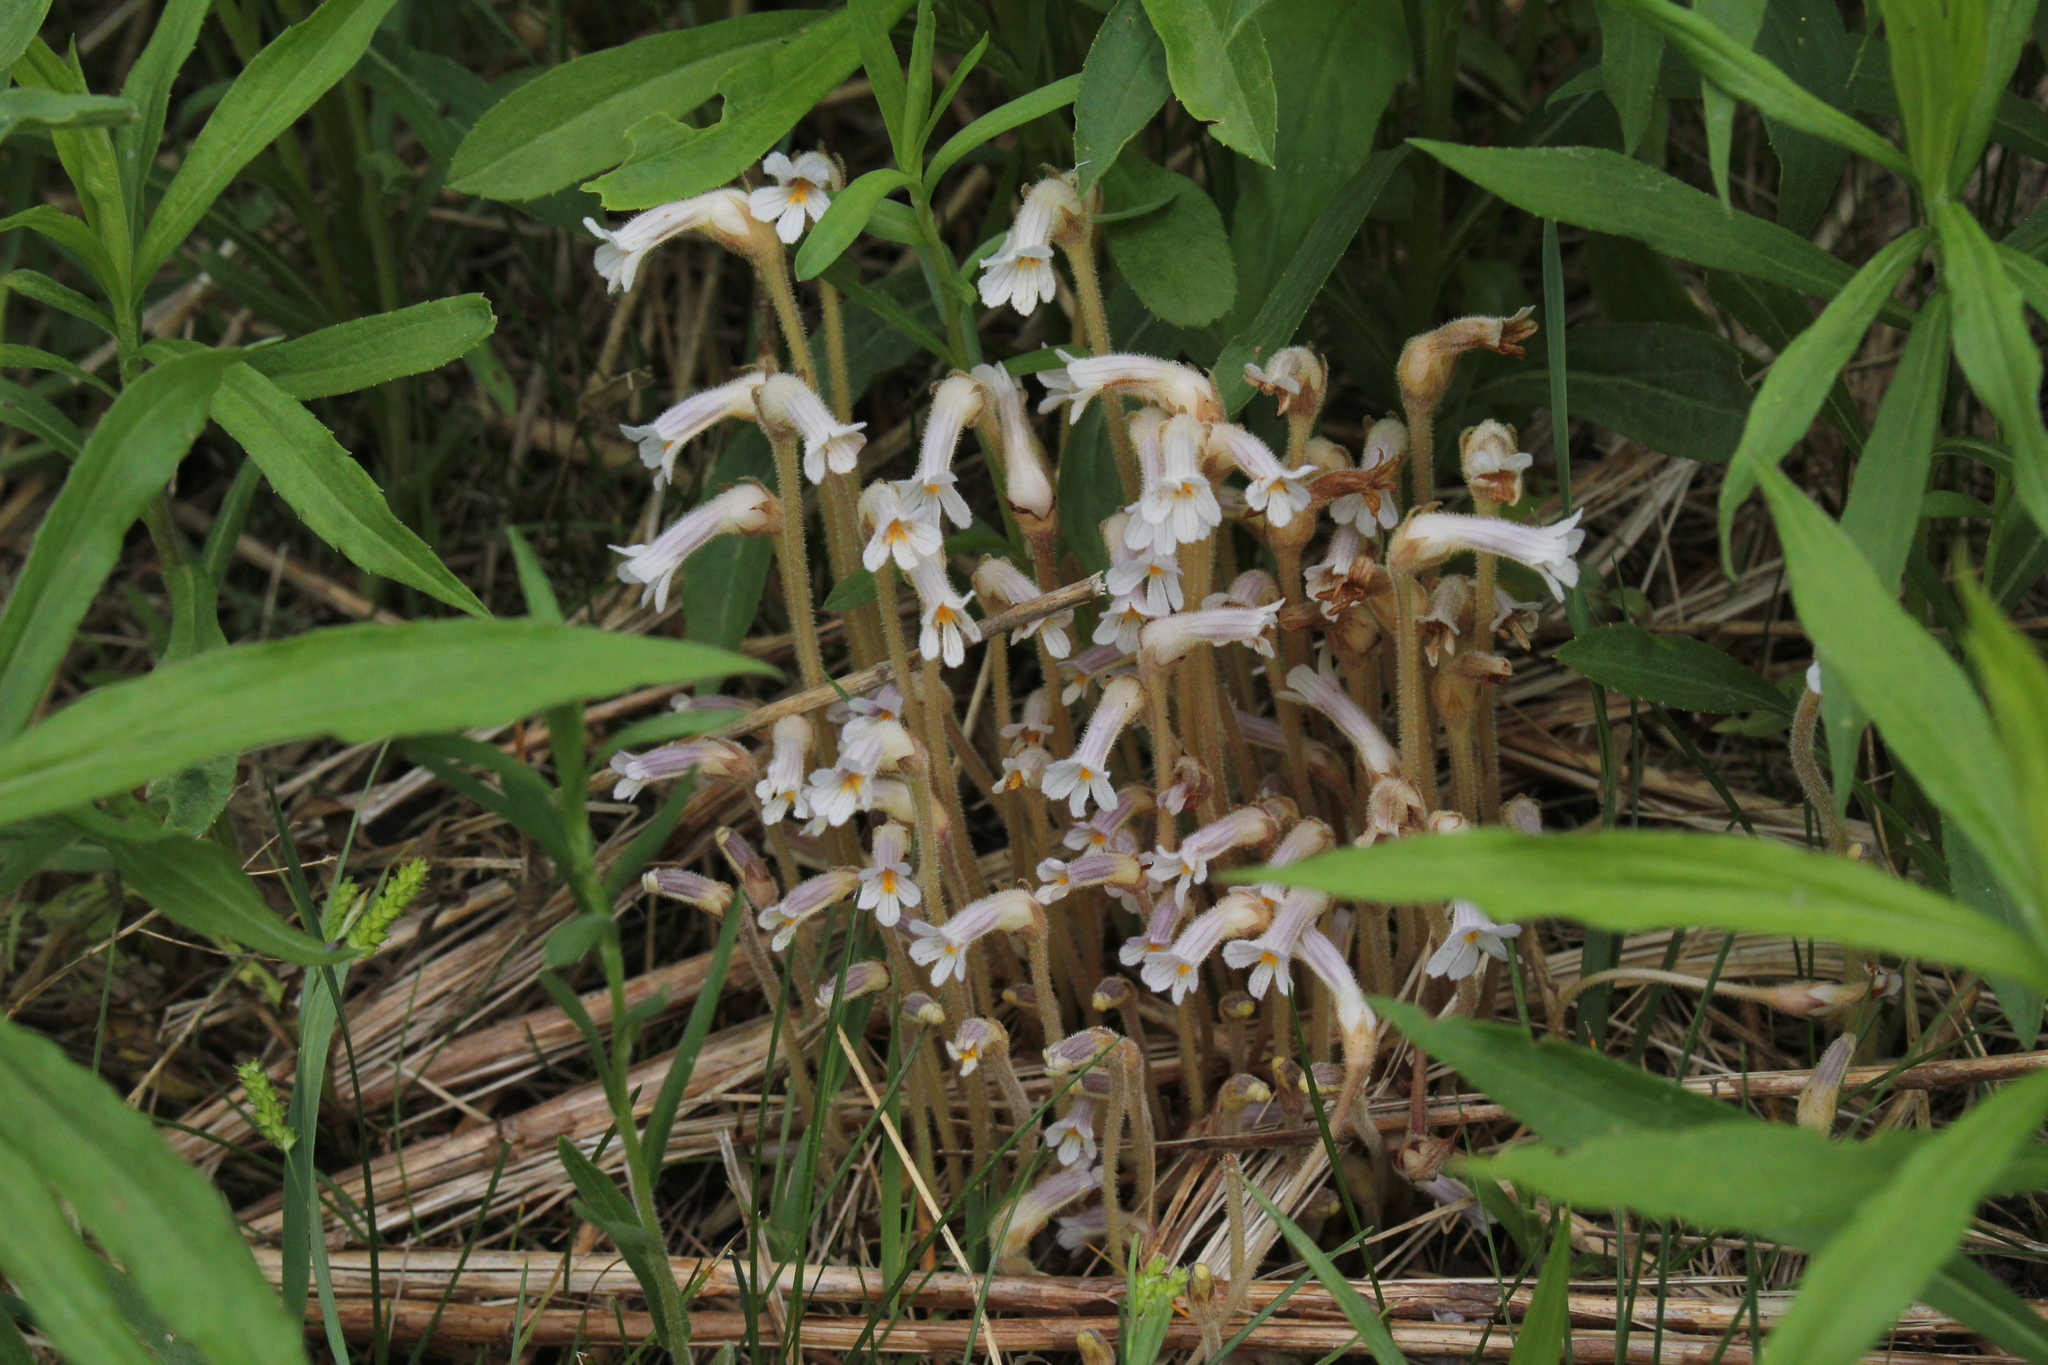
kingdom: Plantae
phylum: Tracheophyta
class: Magnoliopsida
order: Lamiales
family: Orobanchaceae
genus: Aphyllon
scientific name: Aphyllon uniflorum
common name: One-flowered broomrape
